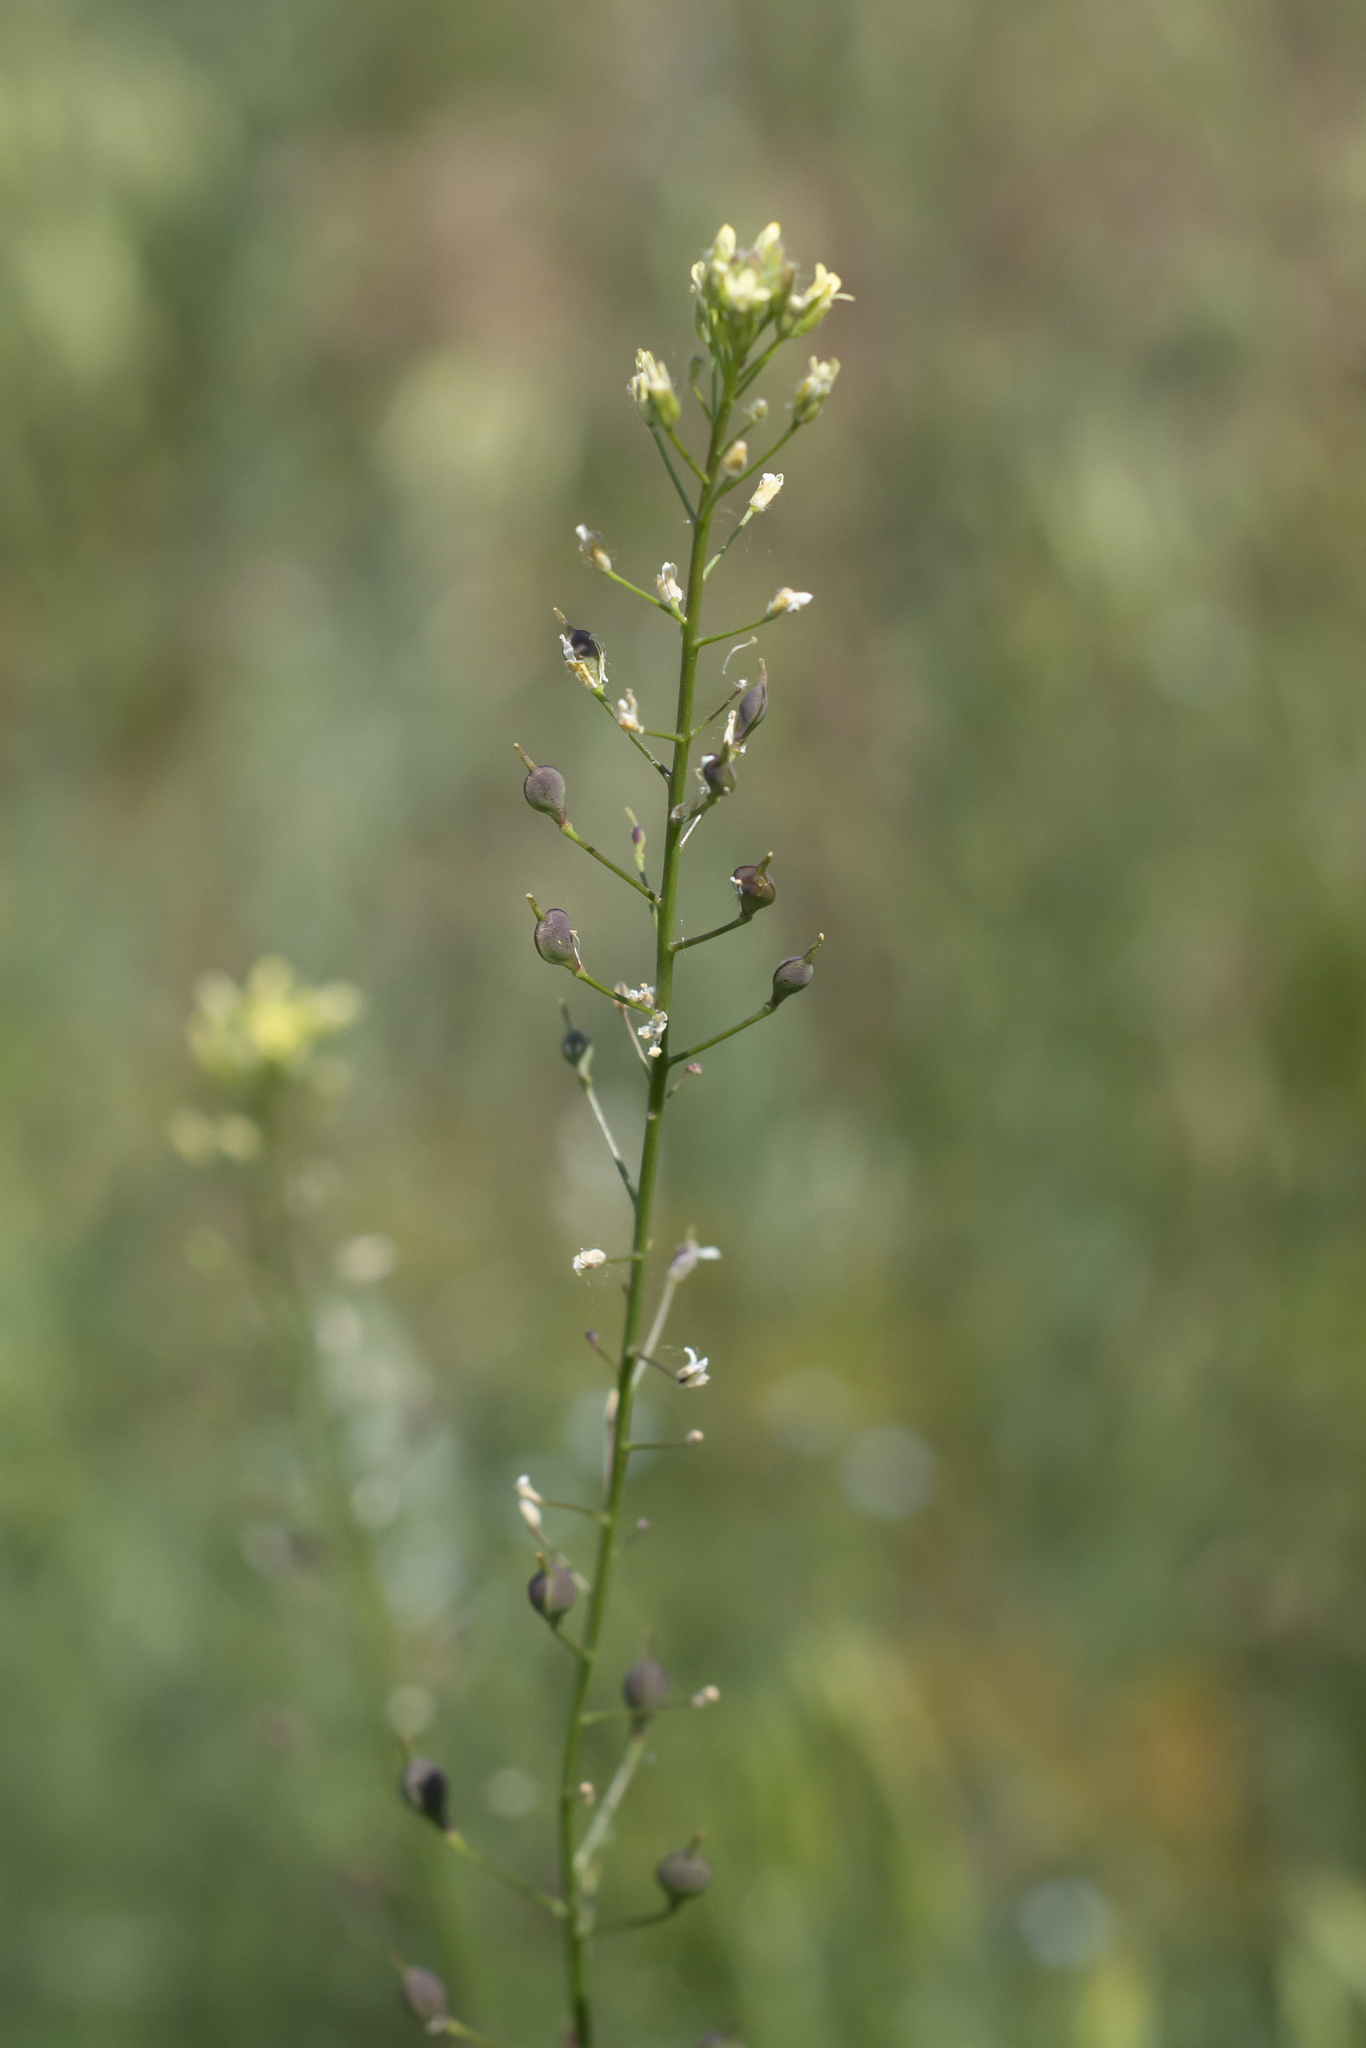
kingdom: Plantae
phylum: Tracheophyta
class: Magnoliopsida
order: Brassicales
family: Brassicaceae
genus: Camelina
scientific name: Camelina microcarpa
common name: Lesser gold-of-pleasure
